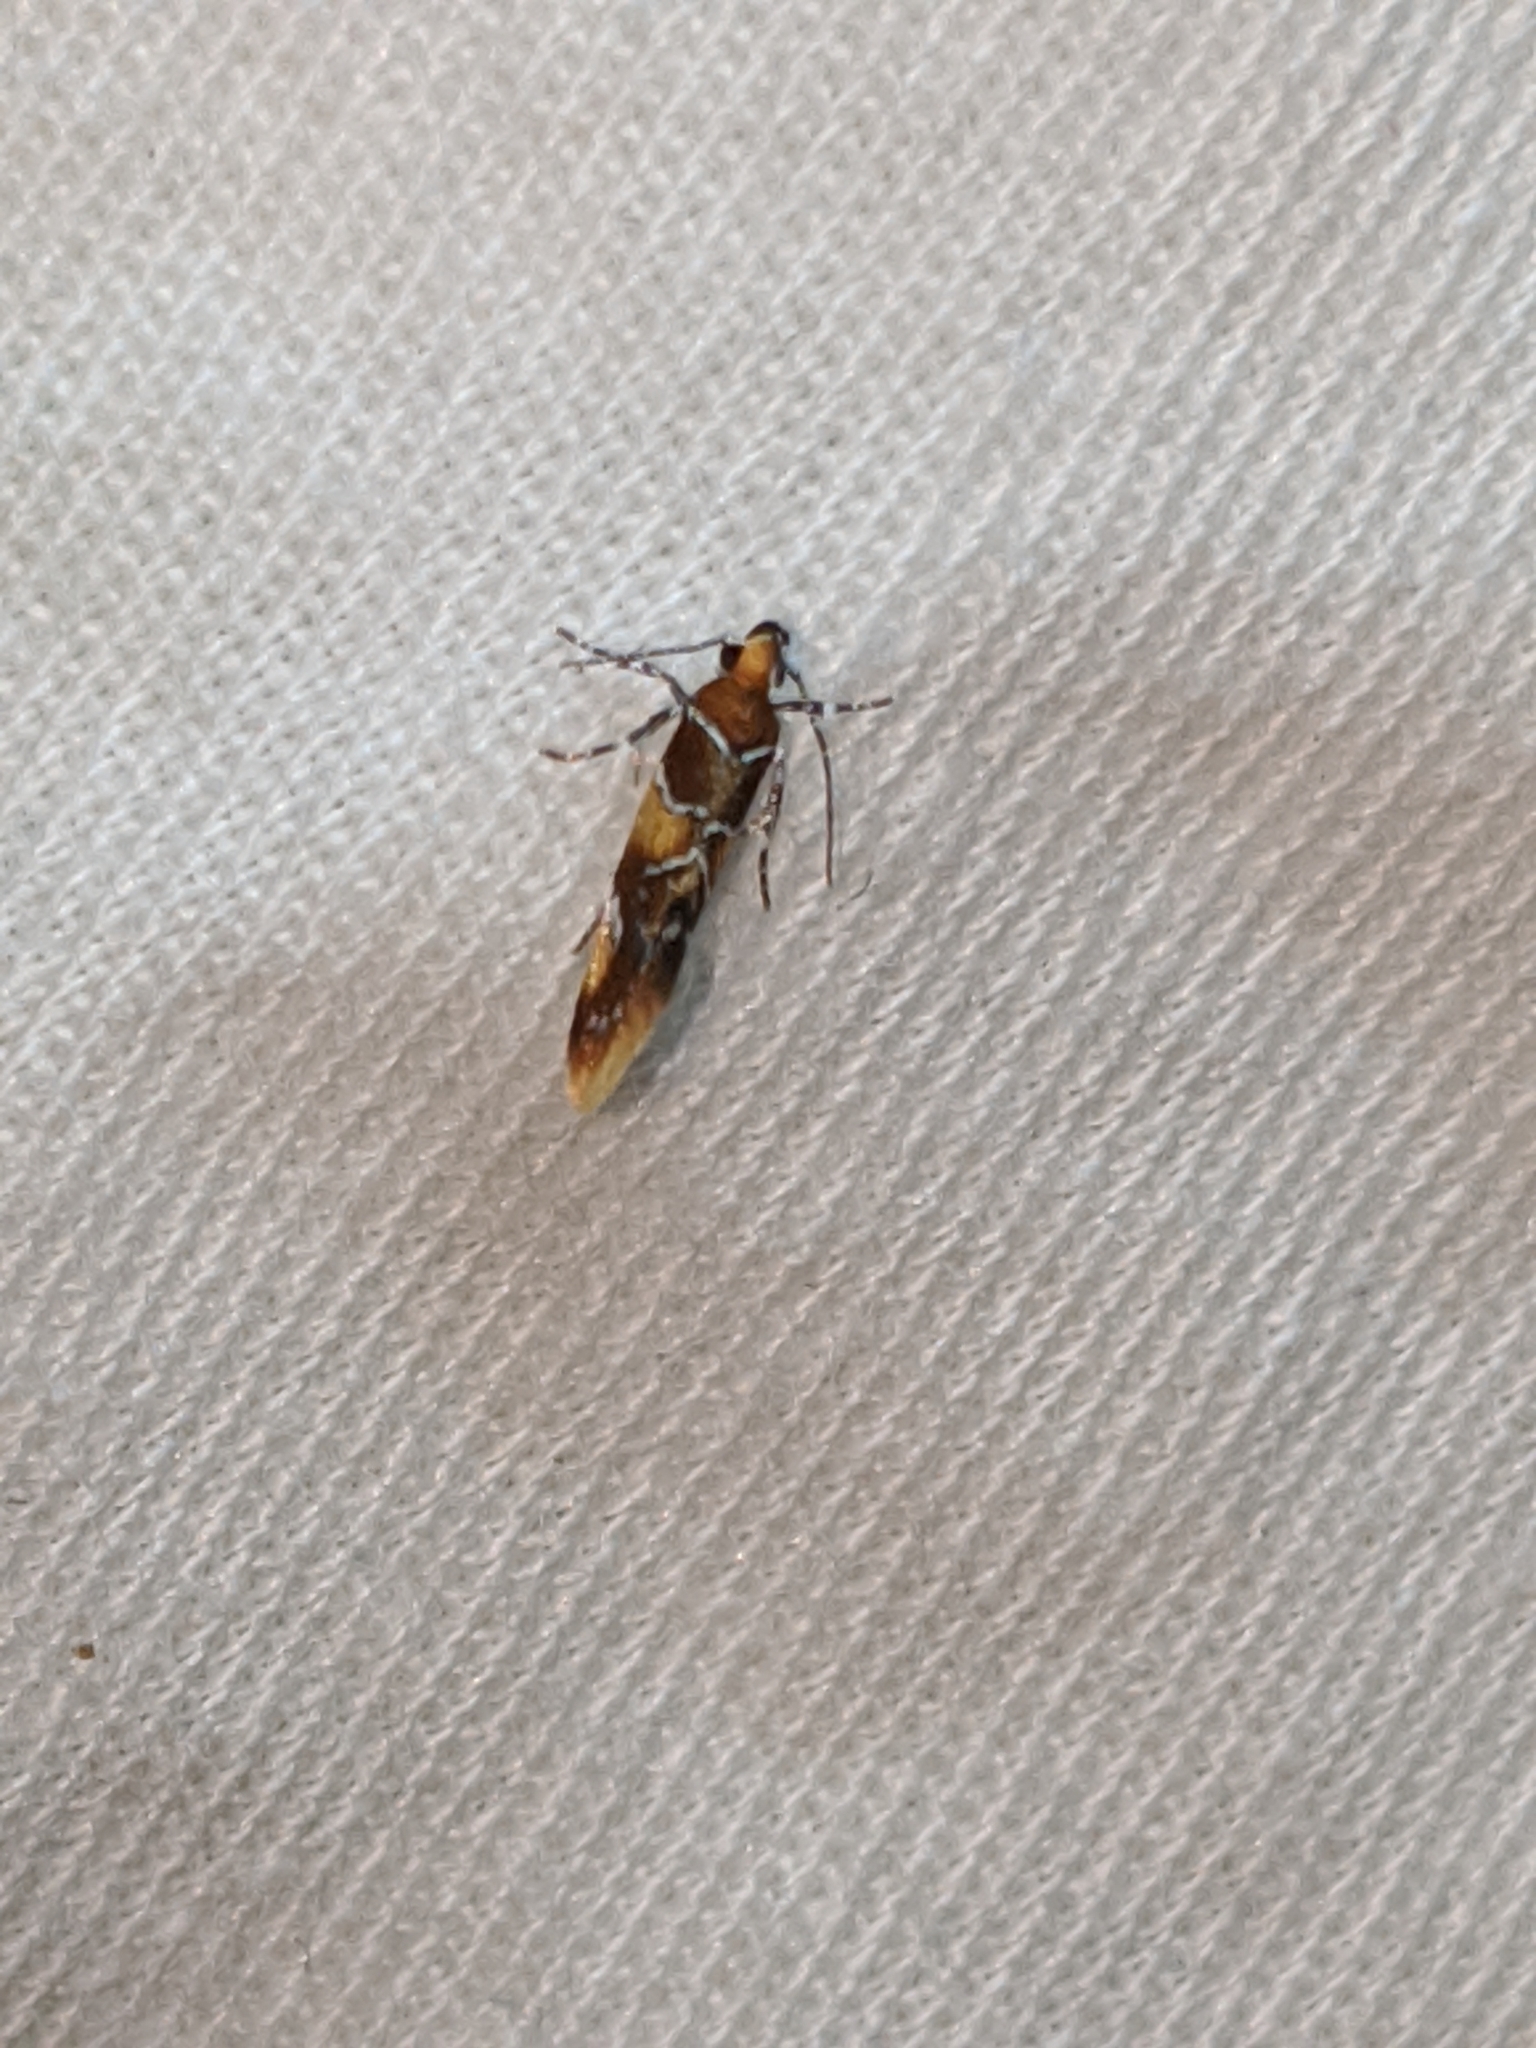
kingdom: Animalia
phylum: Arthropoda
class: Insecta
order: Lepidoptera
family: Oecophoridae
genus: Callima
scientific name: Callima argenticinctella
